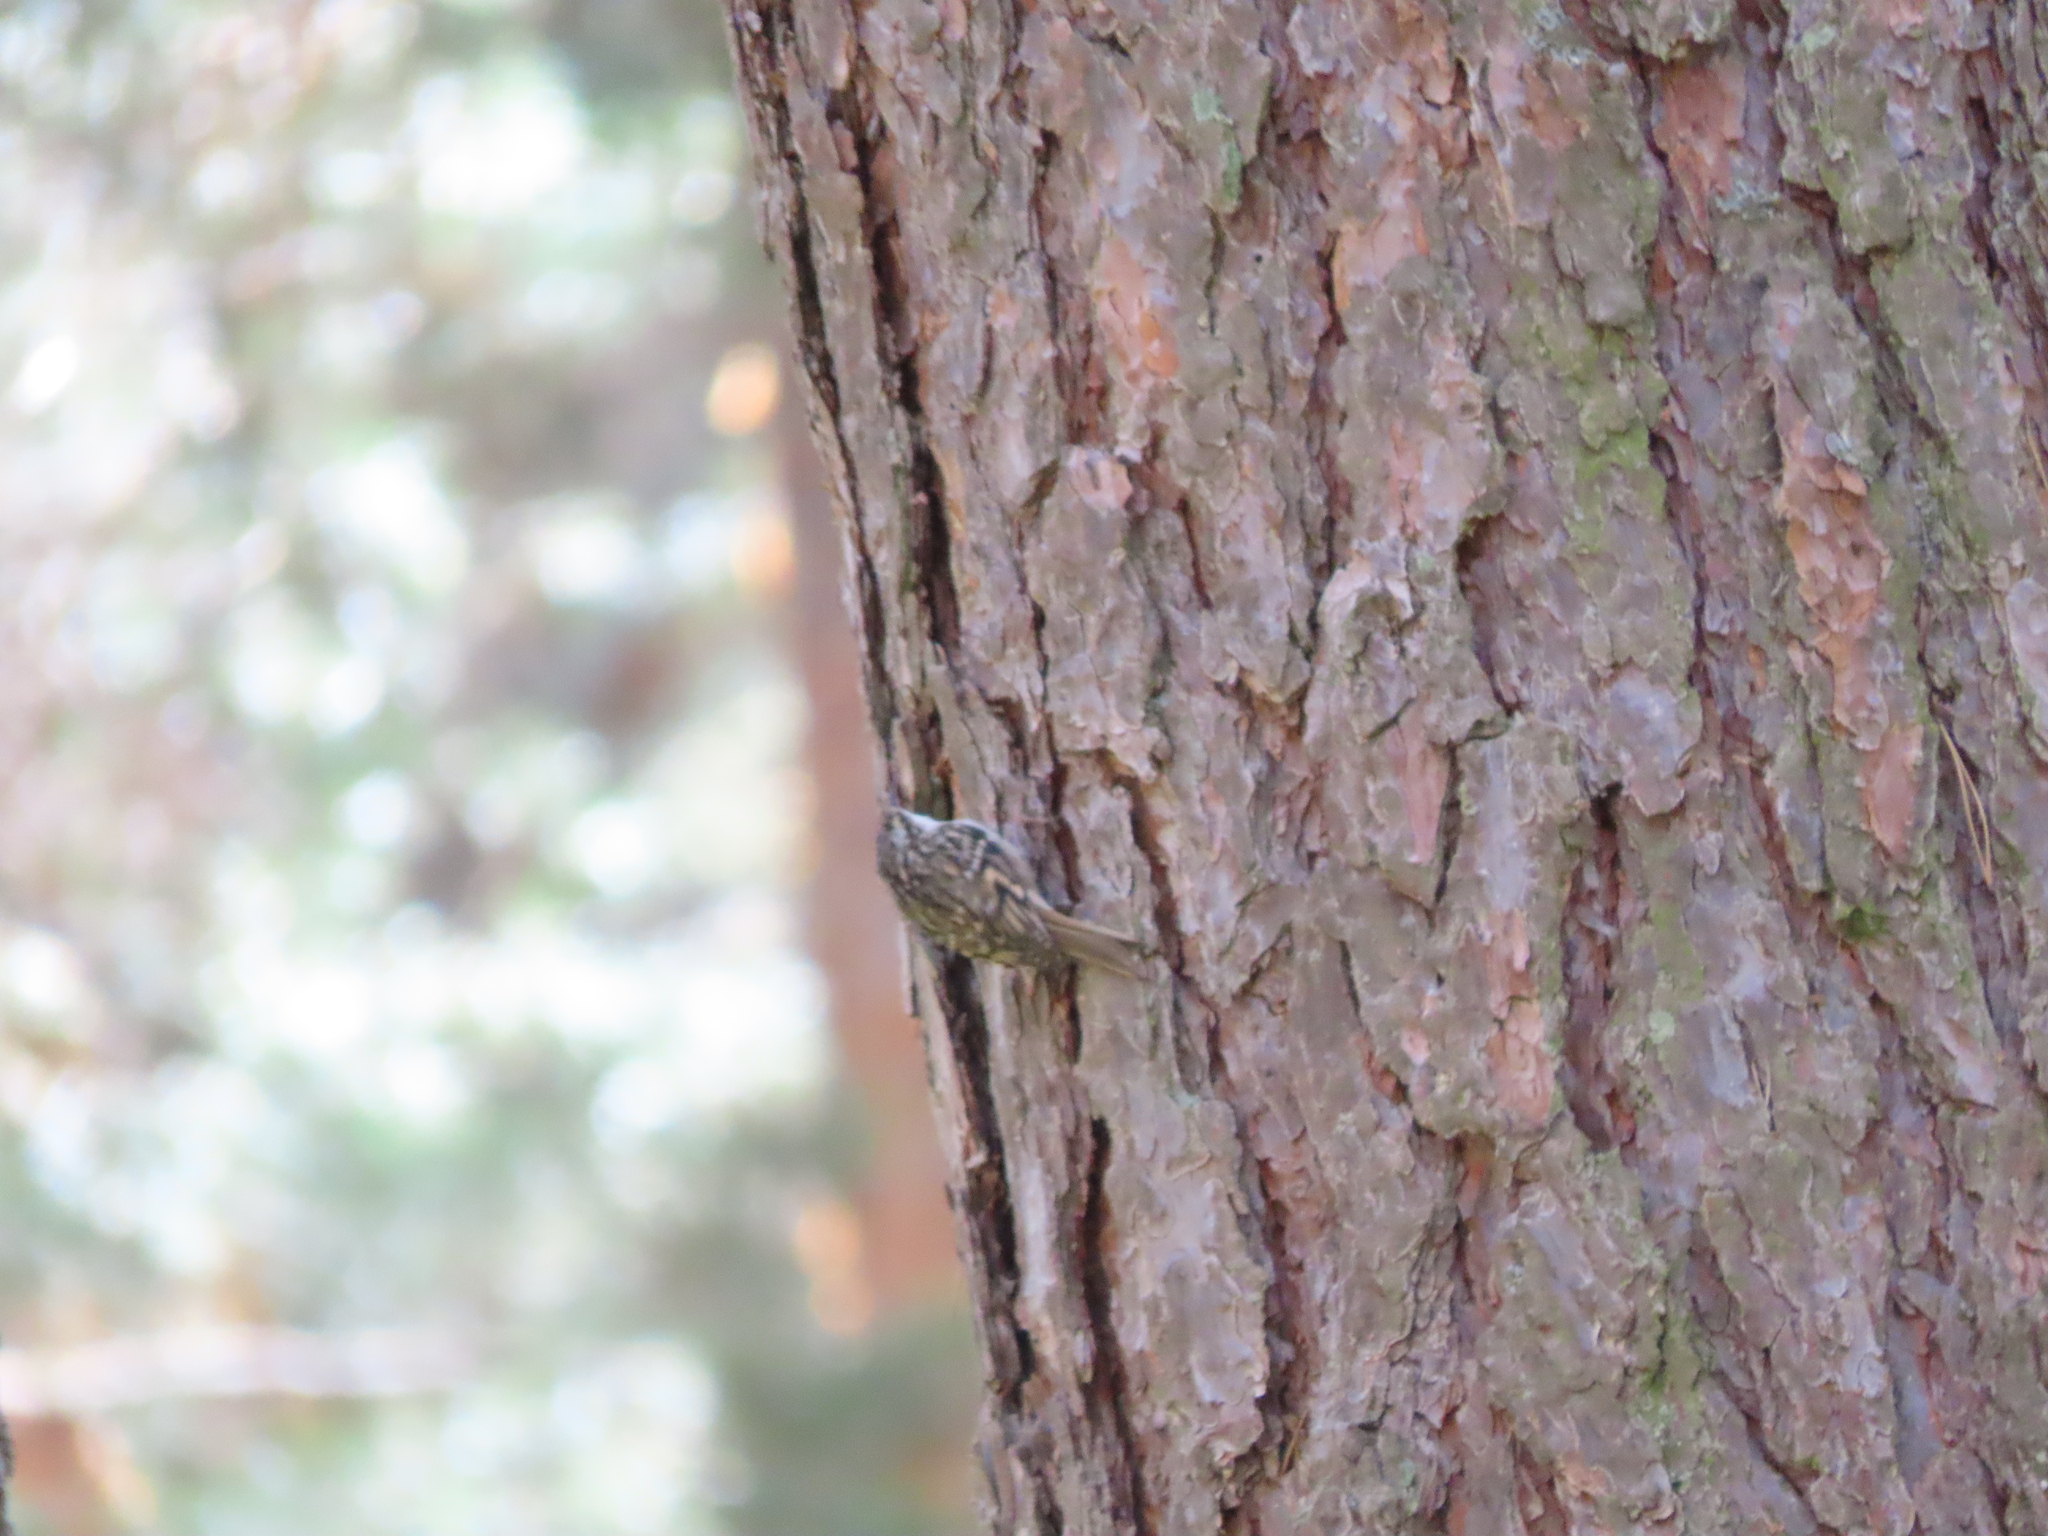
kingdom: Animalia
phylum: Chordata
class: Aves
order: Passeriformes
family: Certhiidae
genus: Certhia
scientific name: Certhia brachydactyla
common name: Short-toed treecreeper
